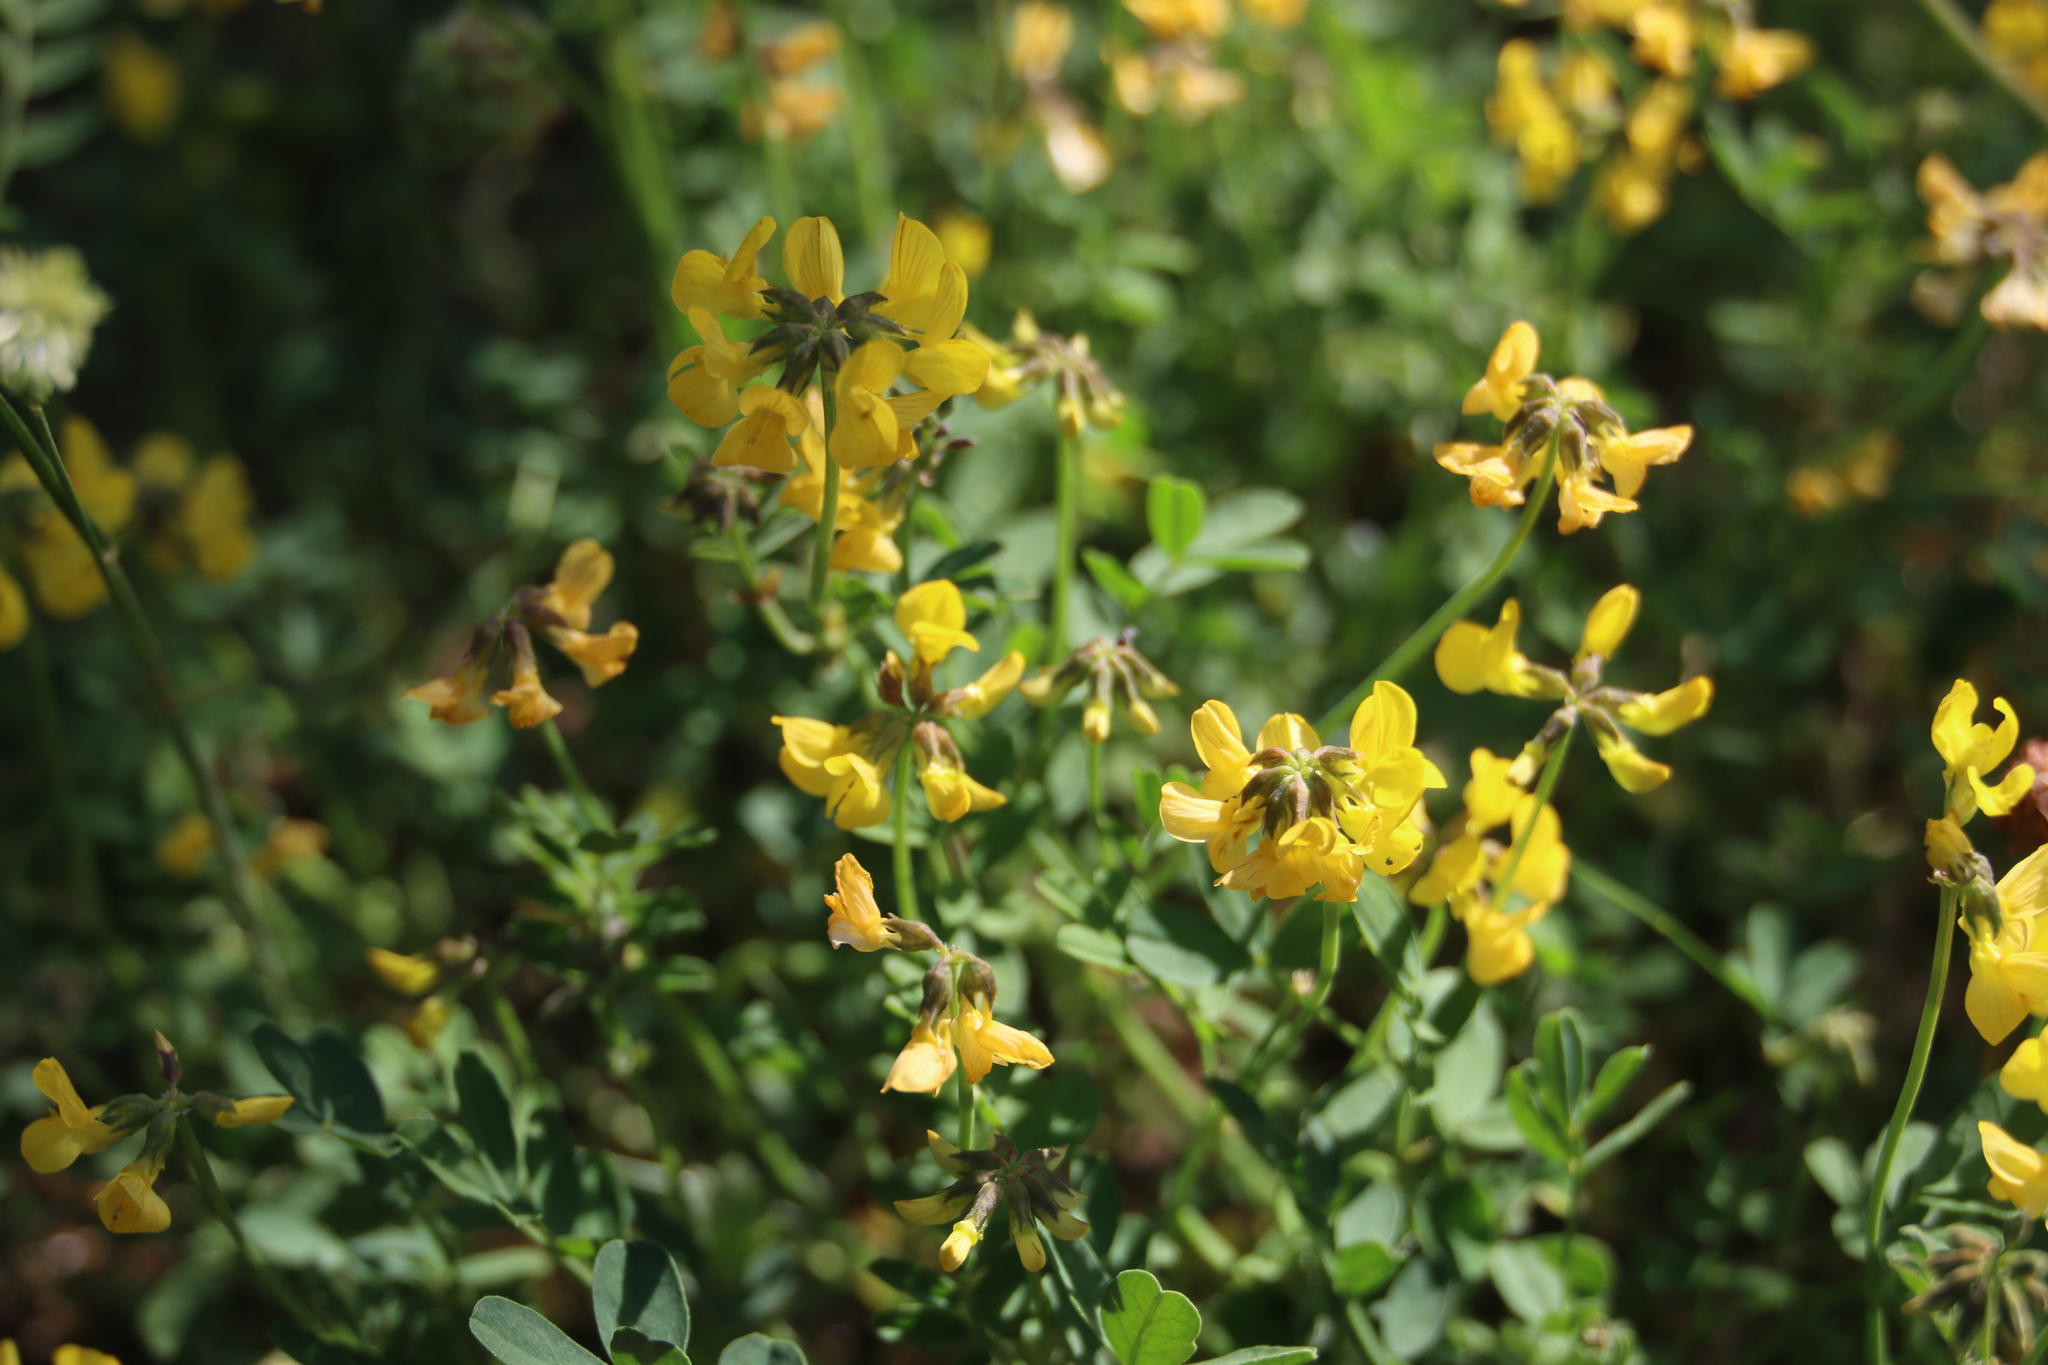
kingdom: Plantae
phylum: Tracheophyta
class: Magnoliopsida
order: Fabales
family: Fabaceae
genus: Hippocrepis
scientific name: Hippocrepis comosa
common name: Horseshoe vetch
